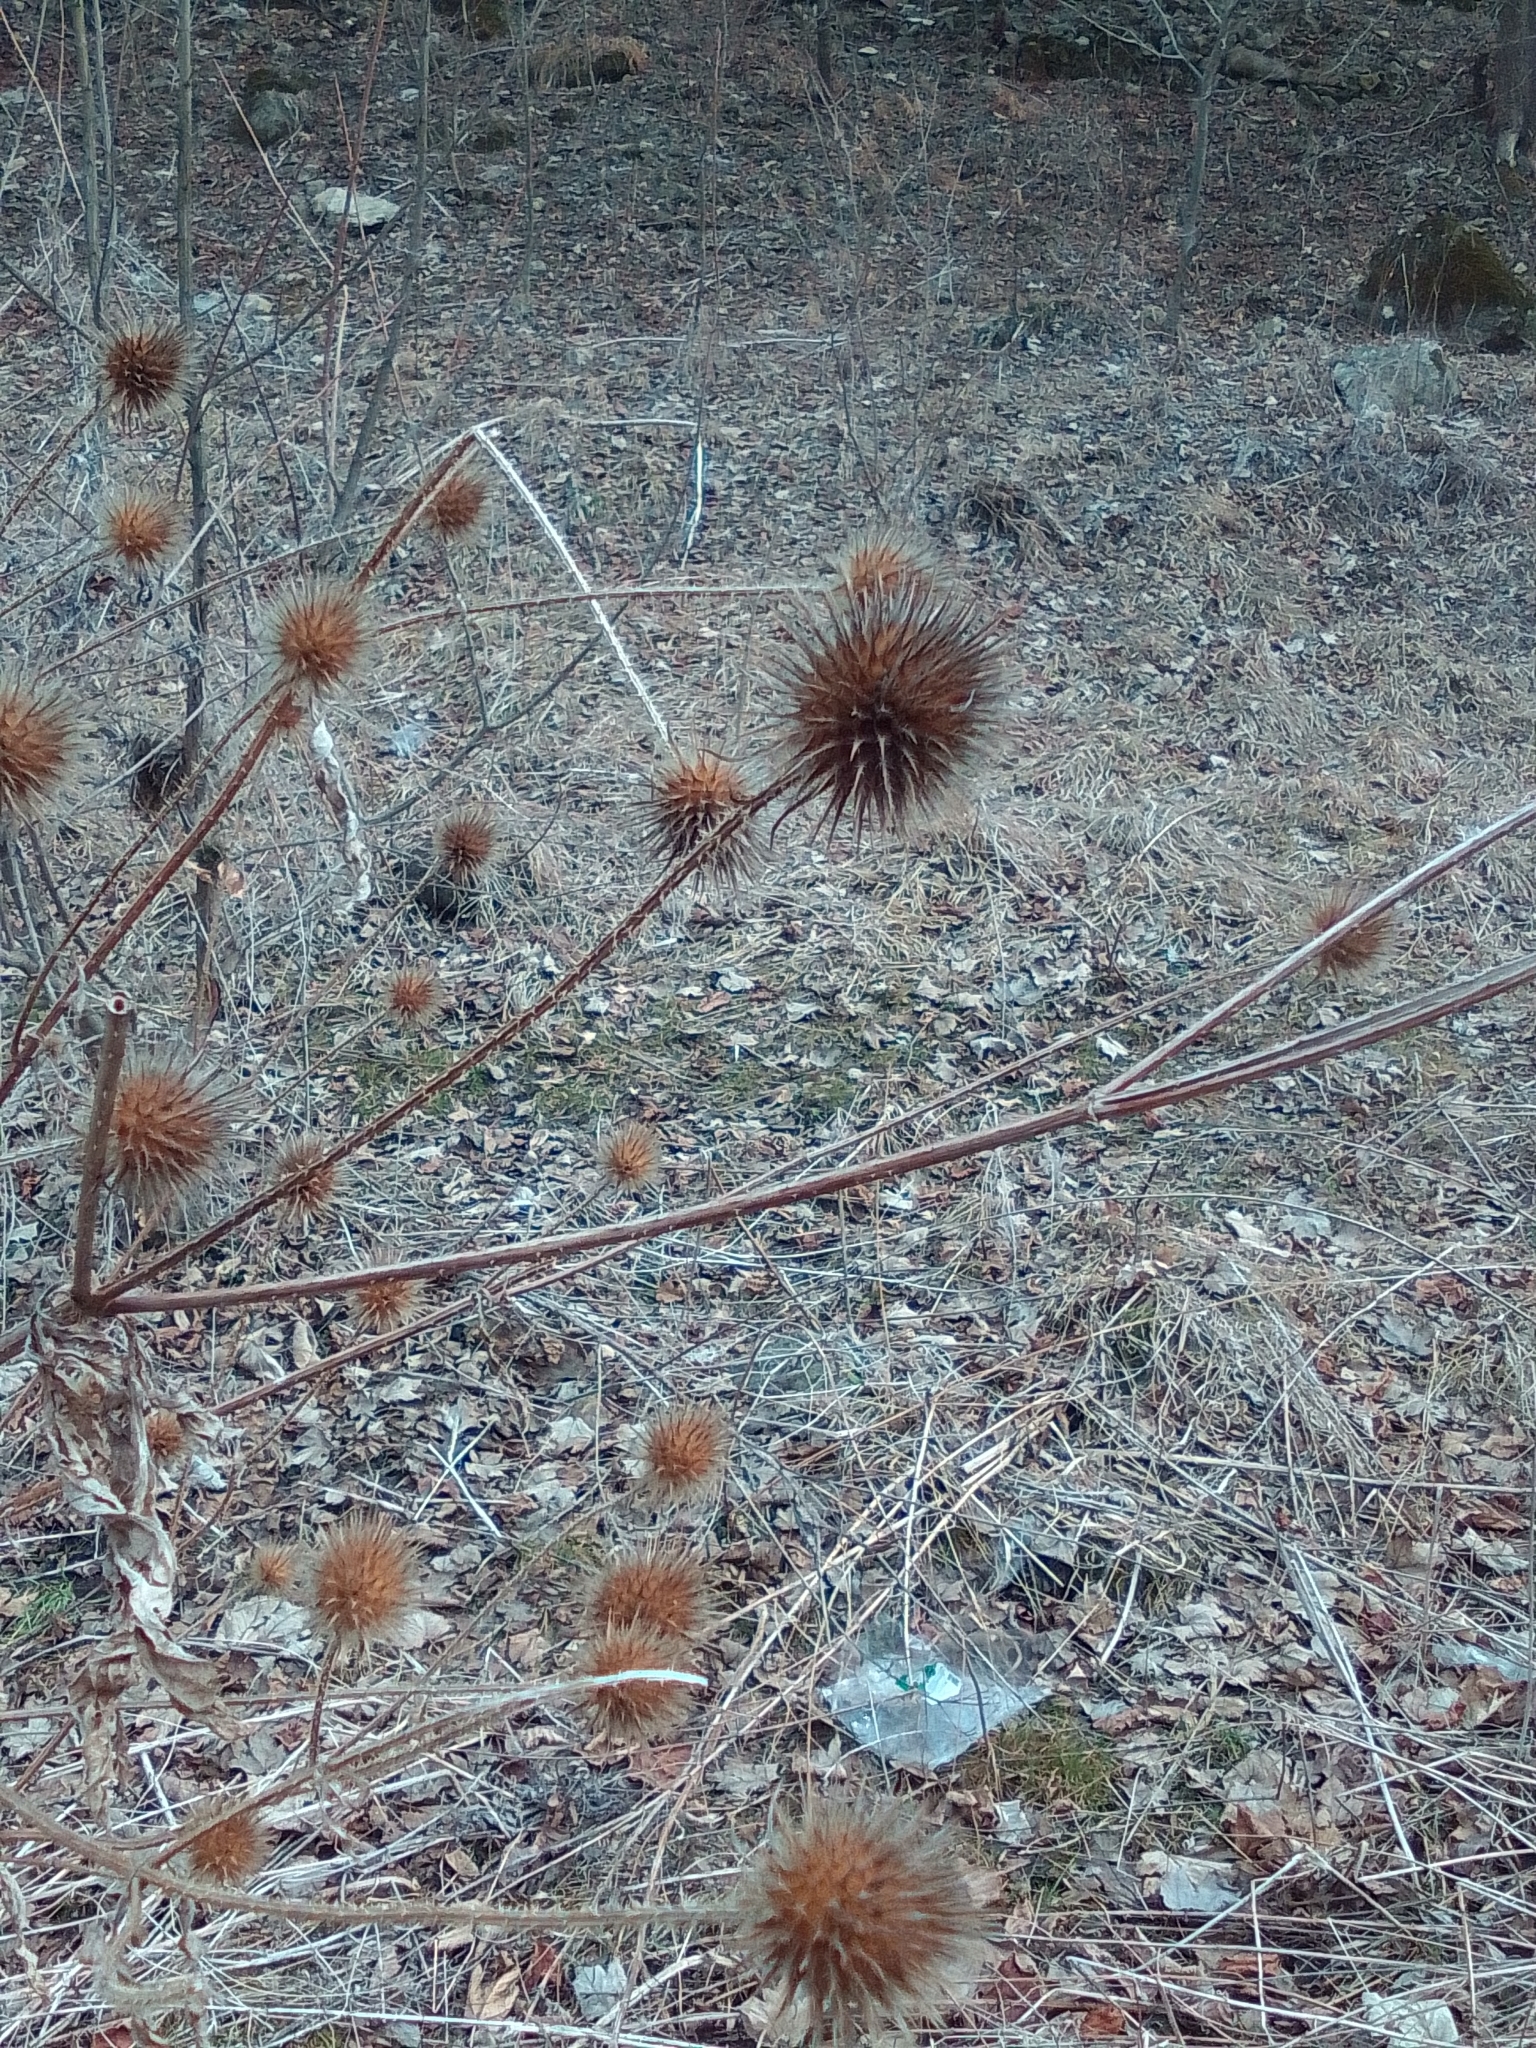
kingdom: Plantae
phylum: Tracheophyta
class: Magnoliopsida
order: Dipsacales
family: Caprifoliaceae
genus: Dipsacus
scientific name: Dipsacus strigosus
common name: Yellow-flowered teasel
